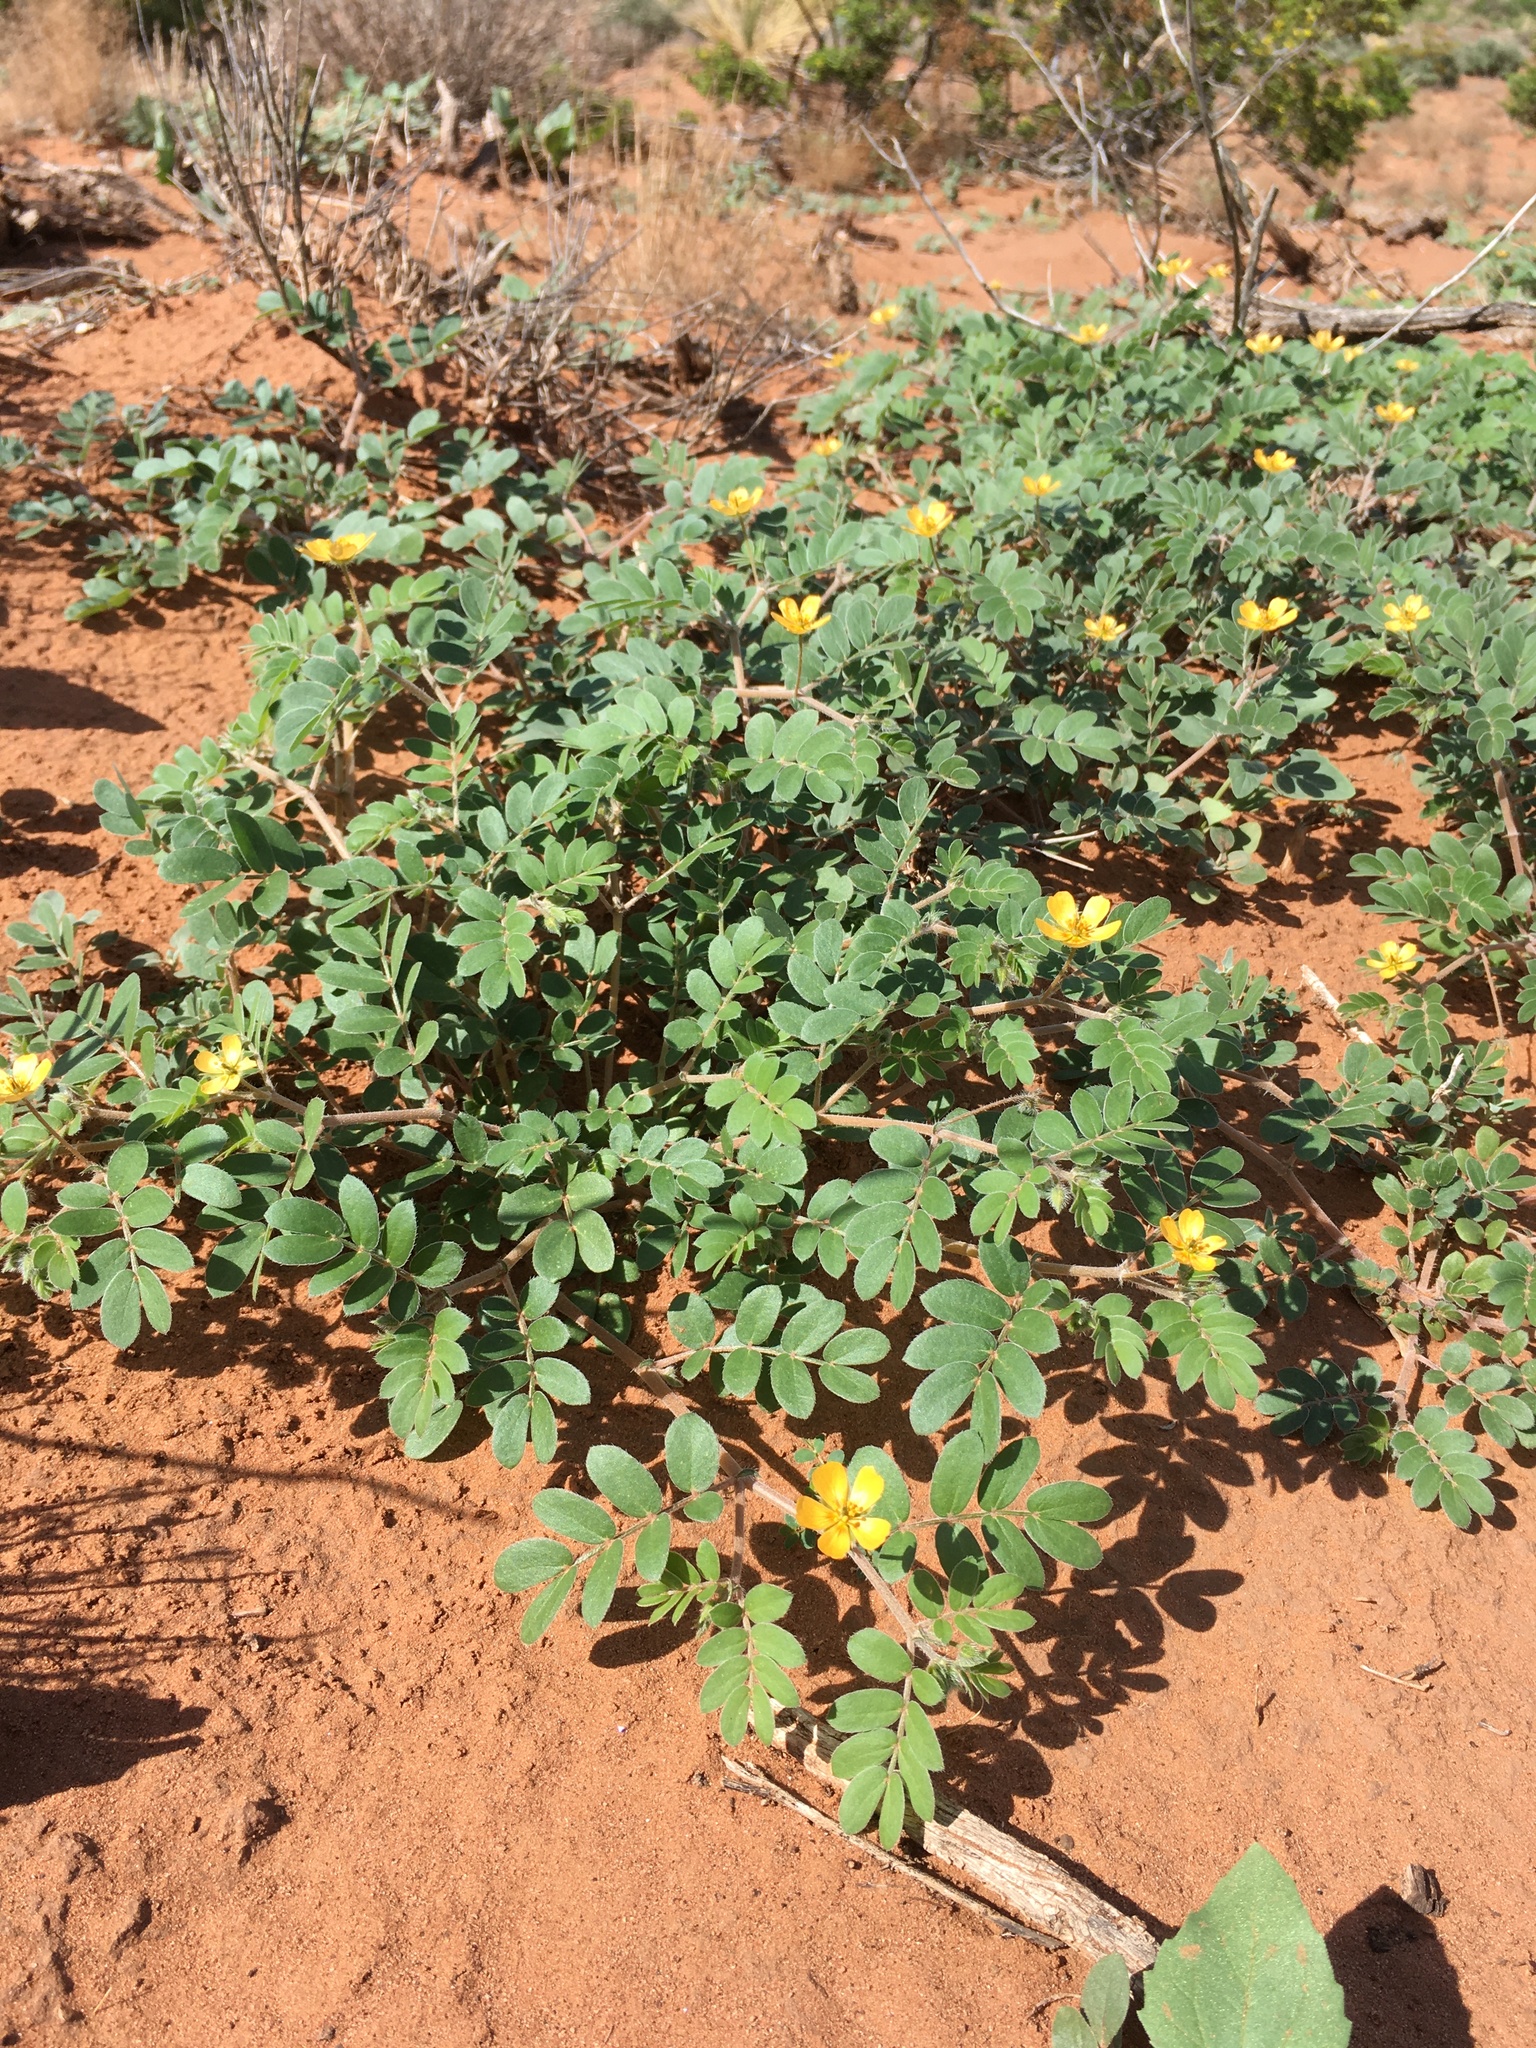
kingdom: Plantae
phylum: Tracheophyta
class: Magnoliopsida
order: Zygophyllales
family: Zygophyllaceae
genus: Kallstroemia
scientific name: Kallstroemia parviflora
